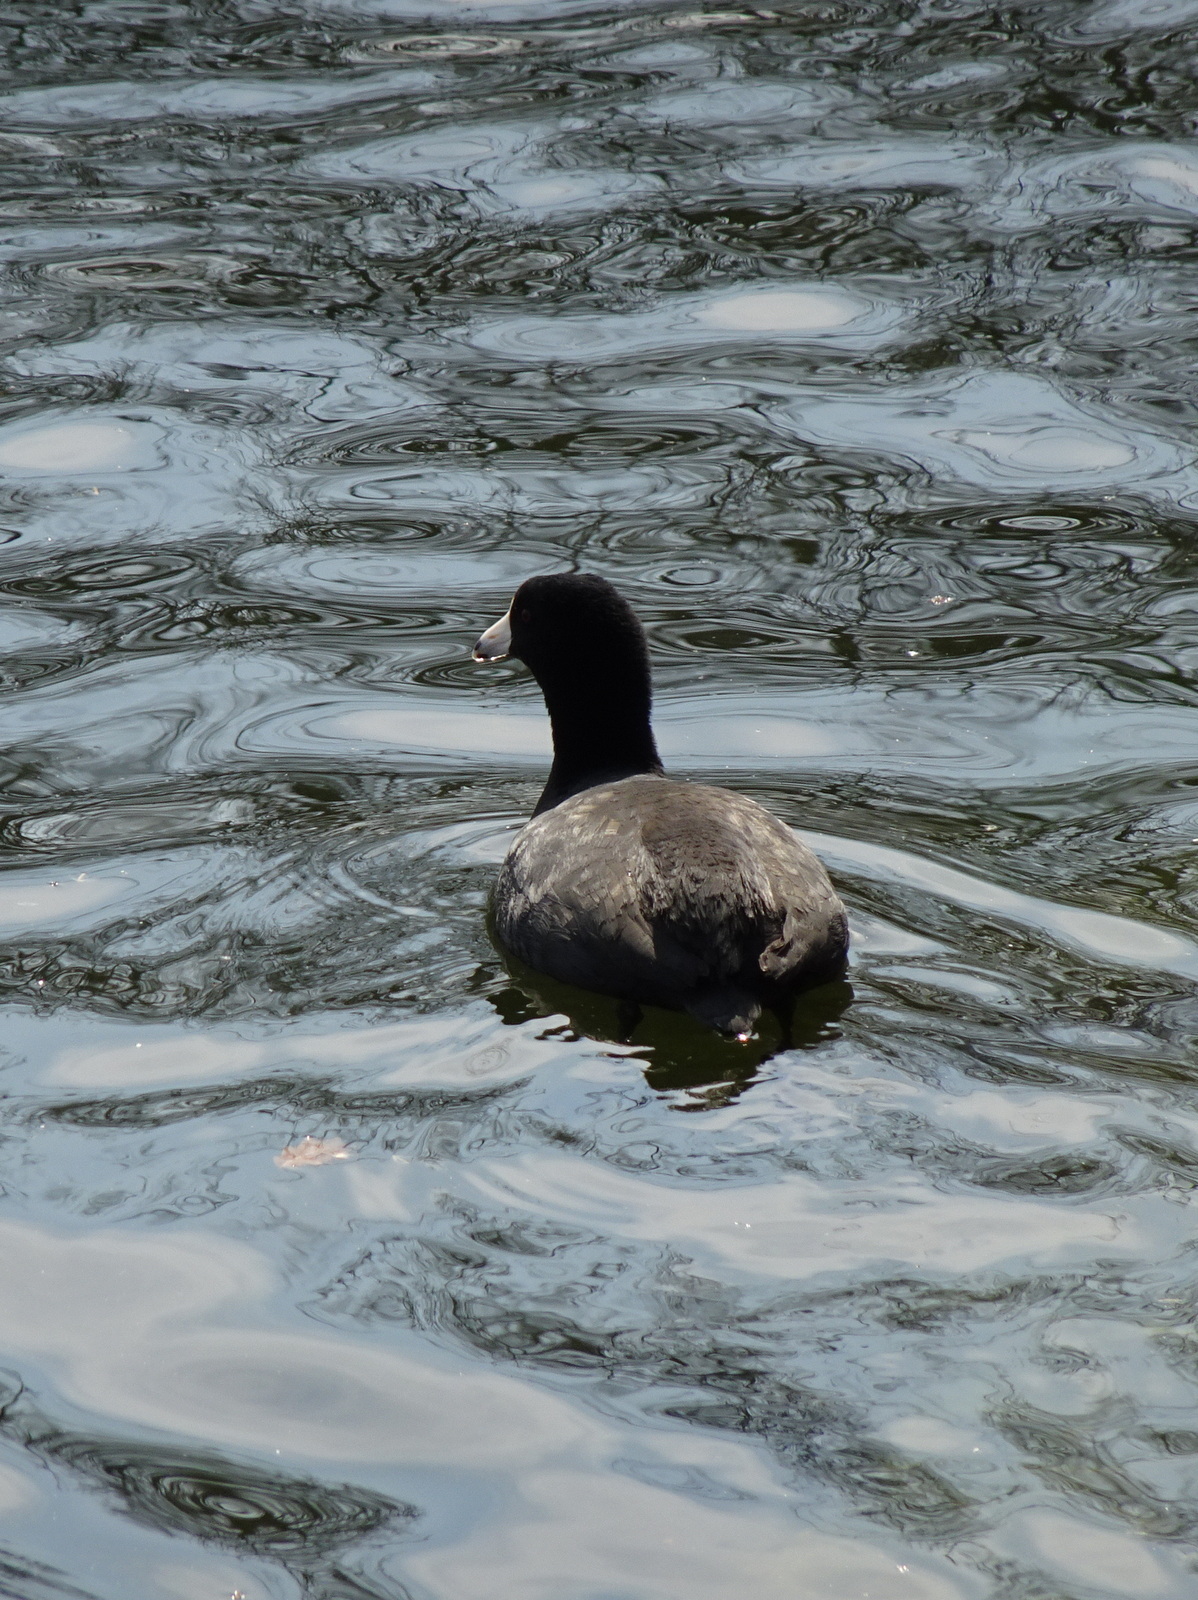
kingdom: Animalia
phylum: Chordata
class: Aves
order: Gruiformes
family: Rallidae
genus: Fulica
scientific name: Fulica americana
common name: American coot
